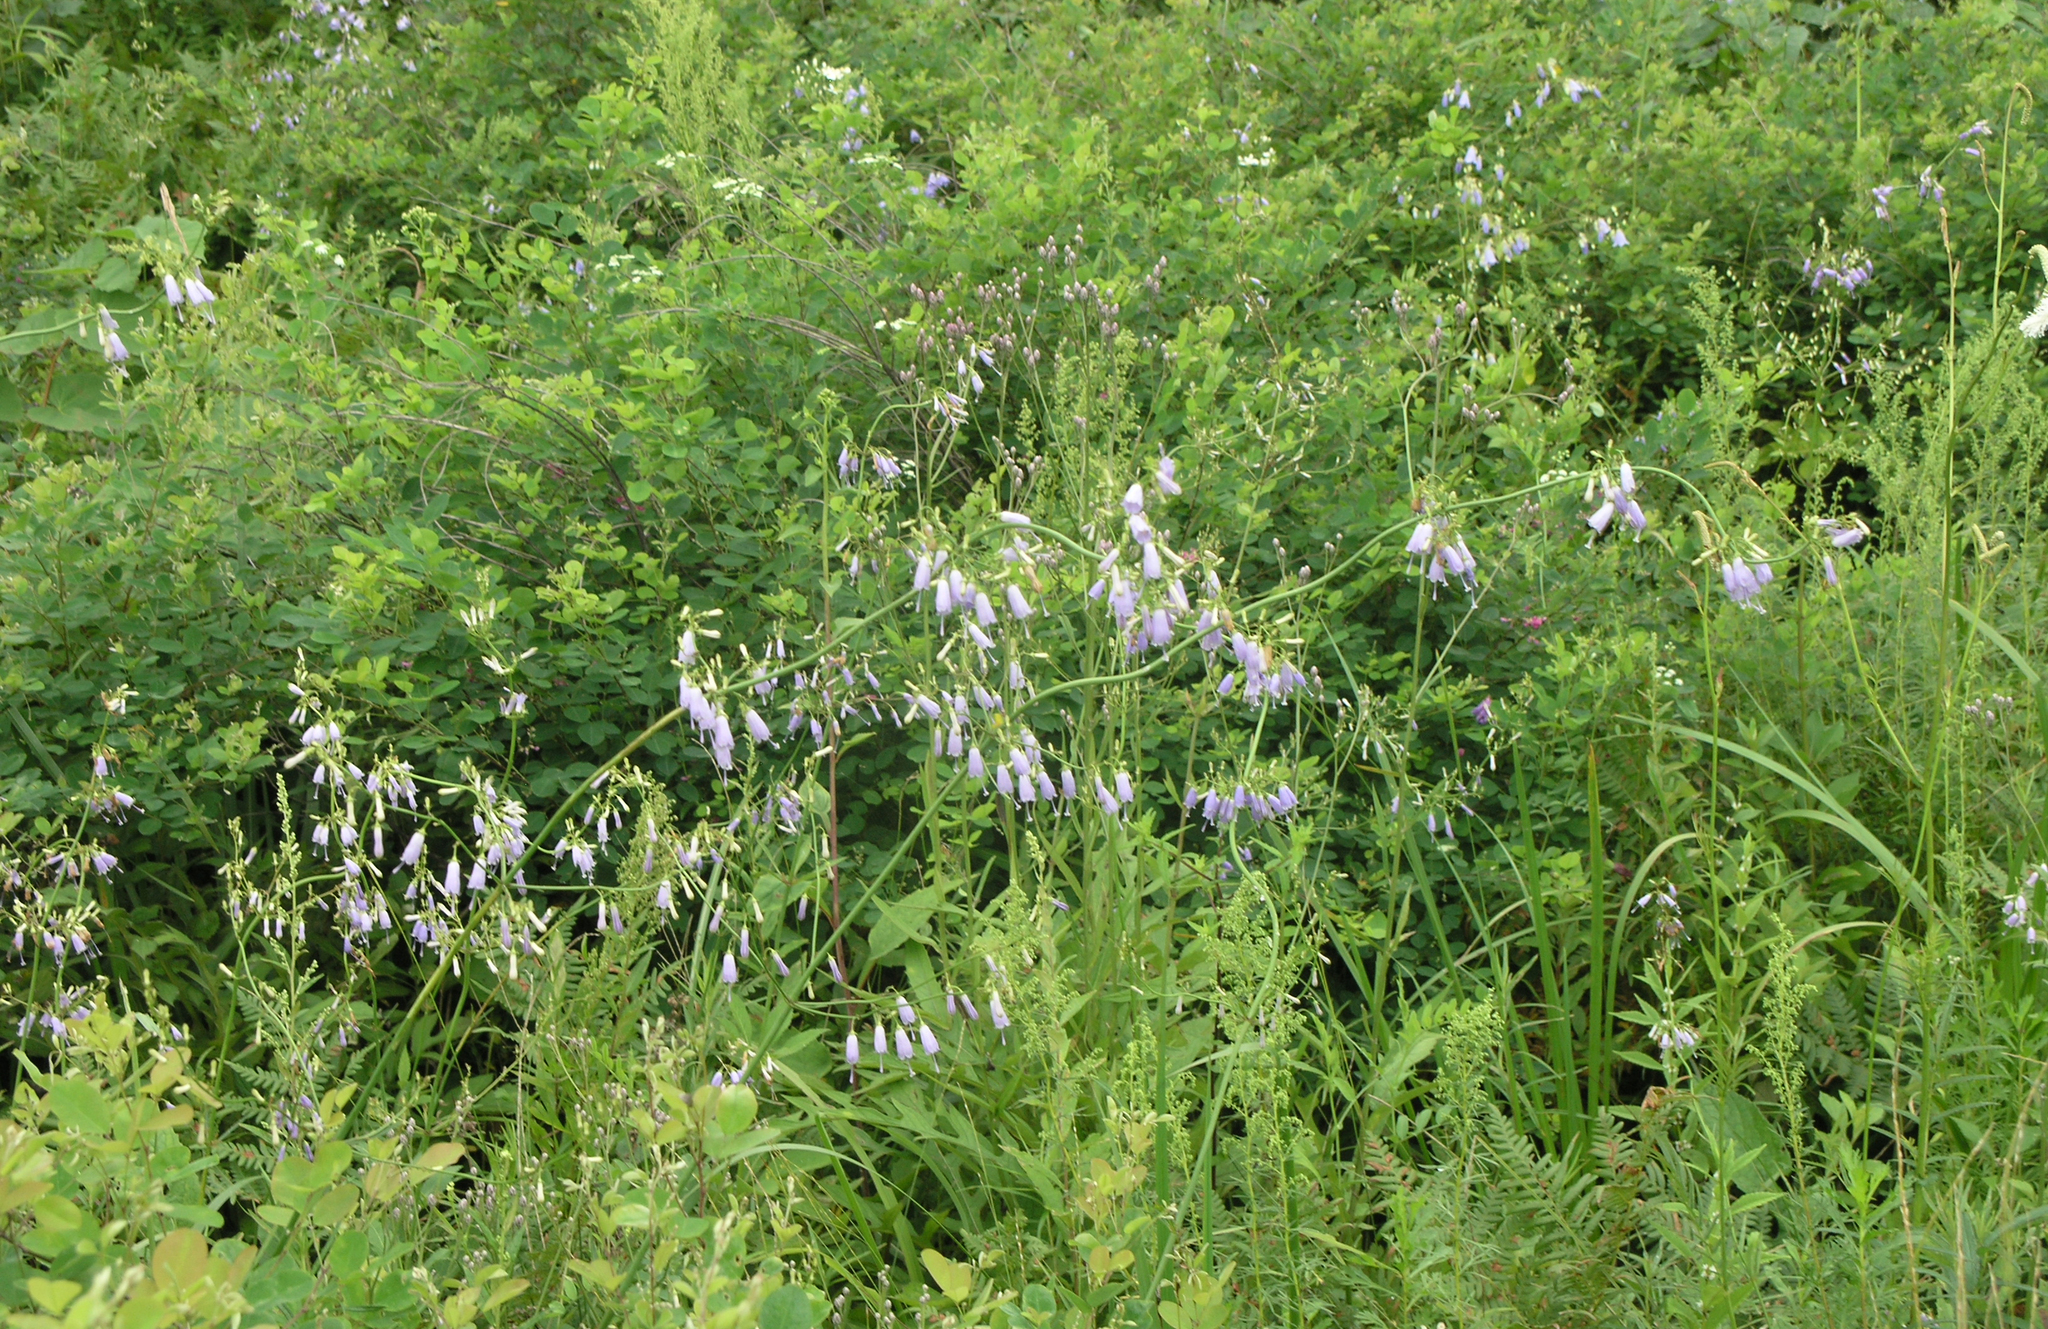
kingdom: Plantae
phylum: Tracheophyta
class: Magnoliopsida
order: Asterales
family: Campanulaceae
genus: Adenophora
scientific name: Adenophora divaricata
